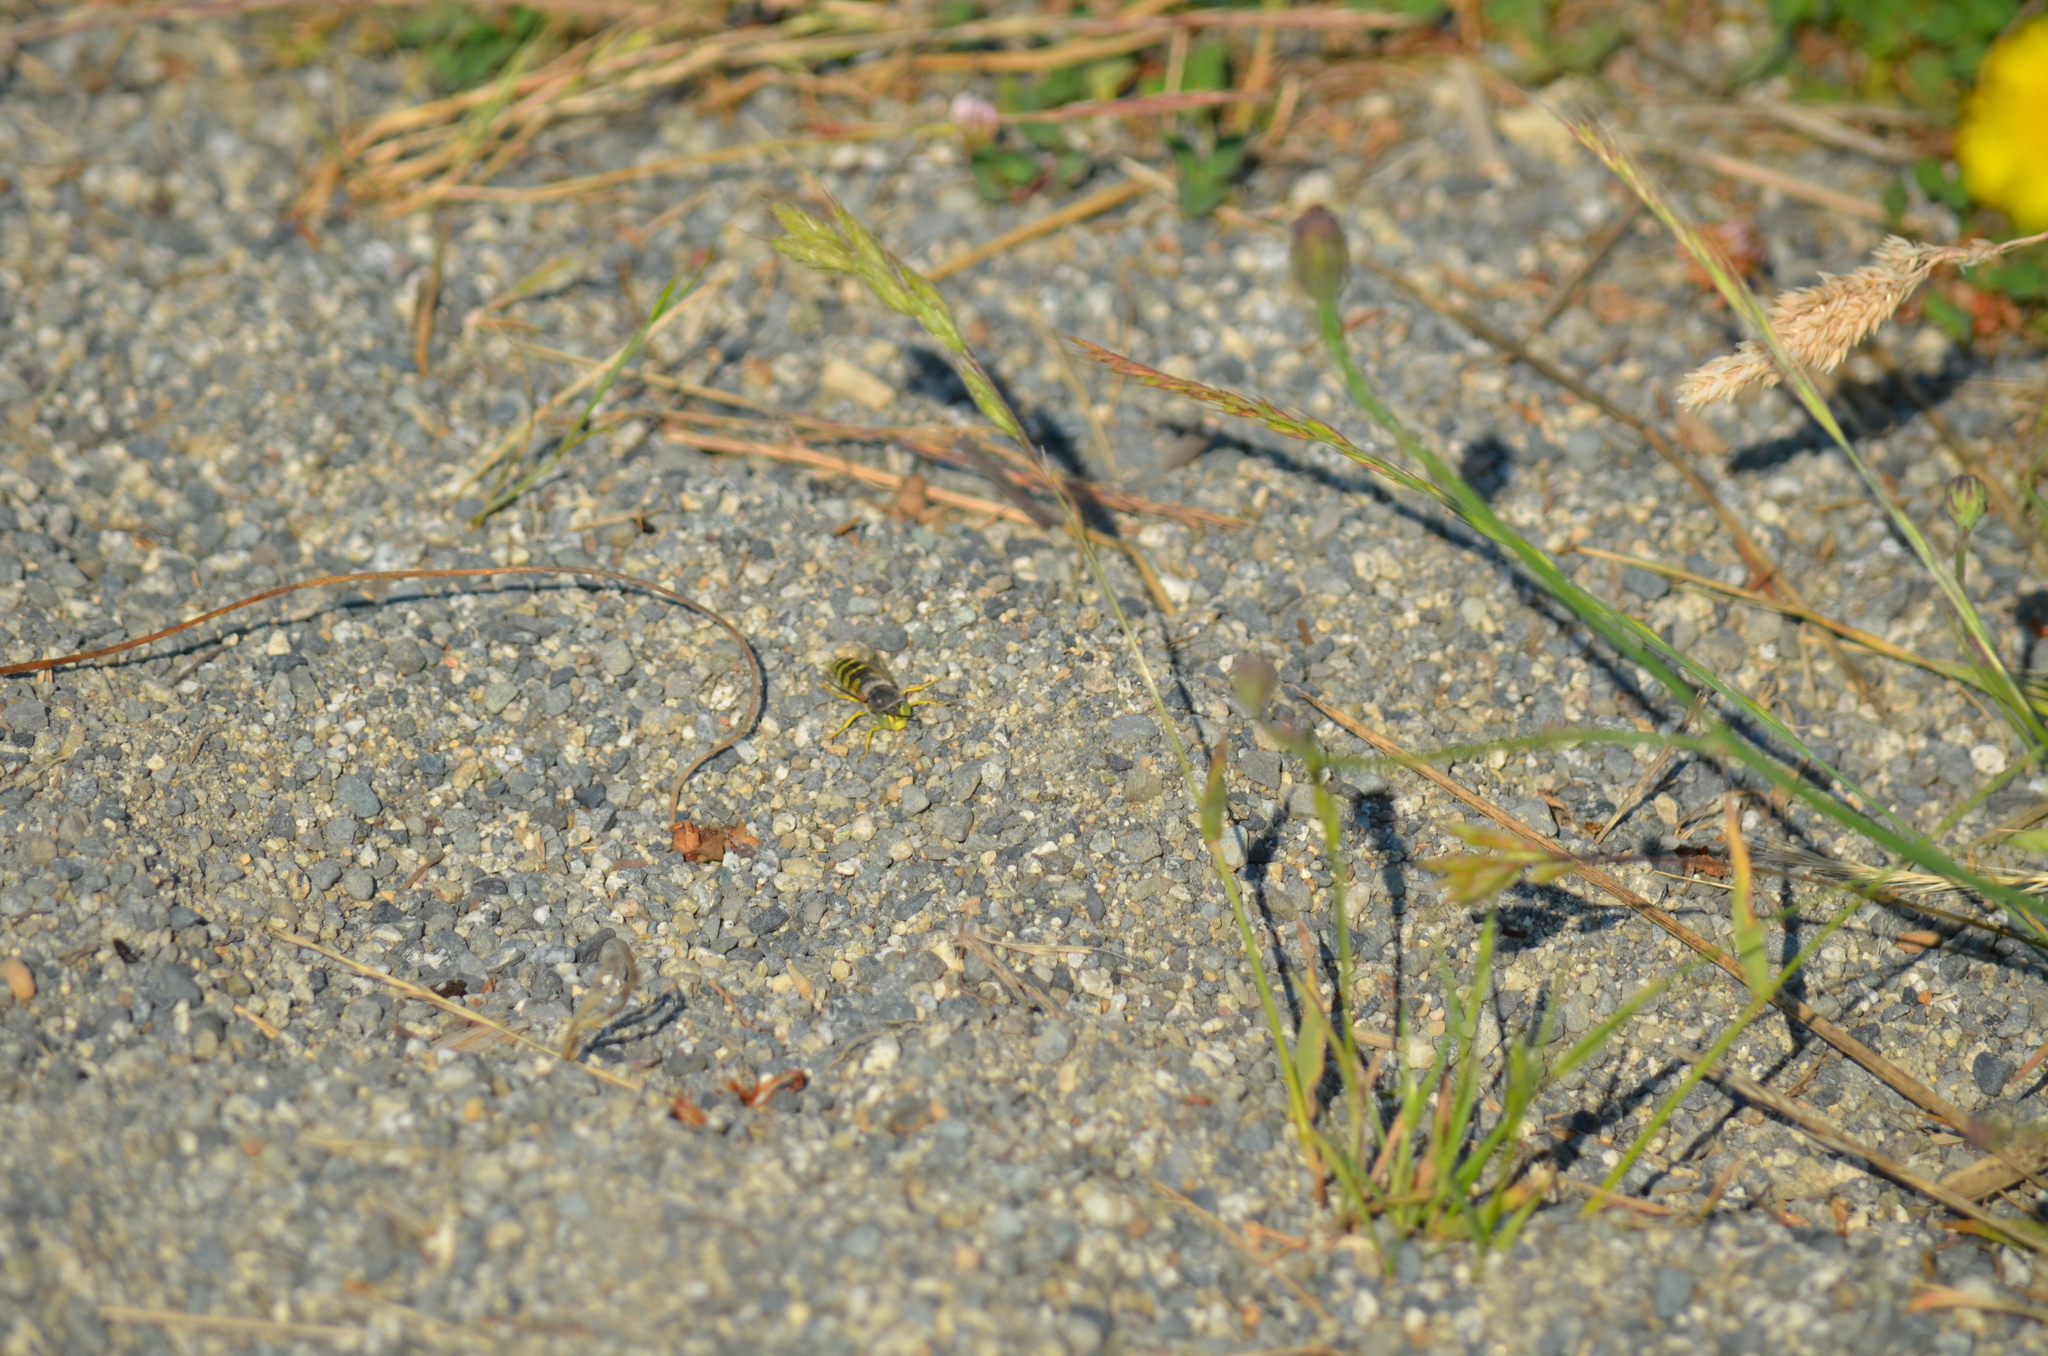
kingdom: Animalia
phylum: Arthropoda
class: Insecta
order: Hymenoptera
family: Crabronidae
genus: Bembix
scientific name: Bembix americana
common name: American sand wasp
